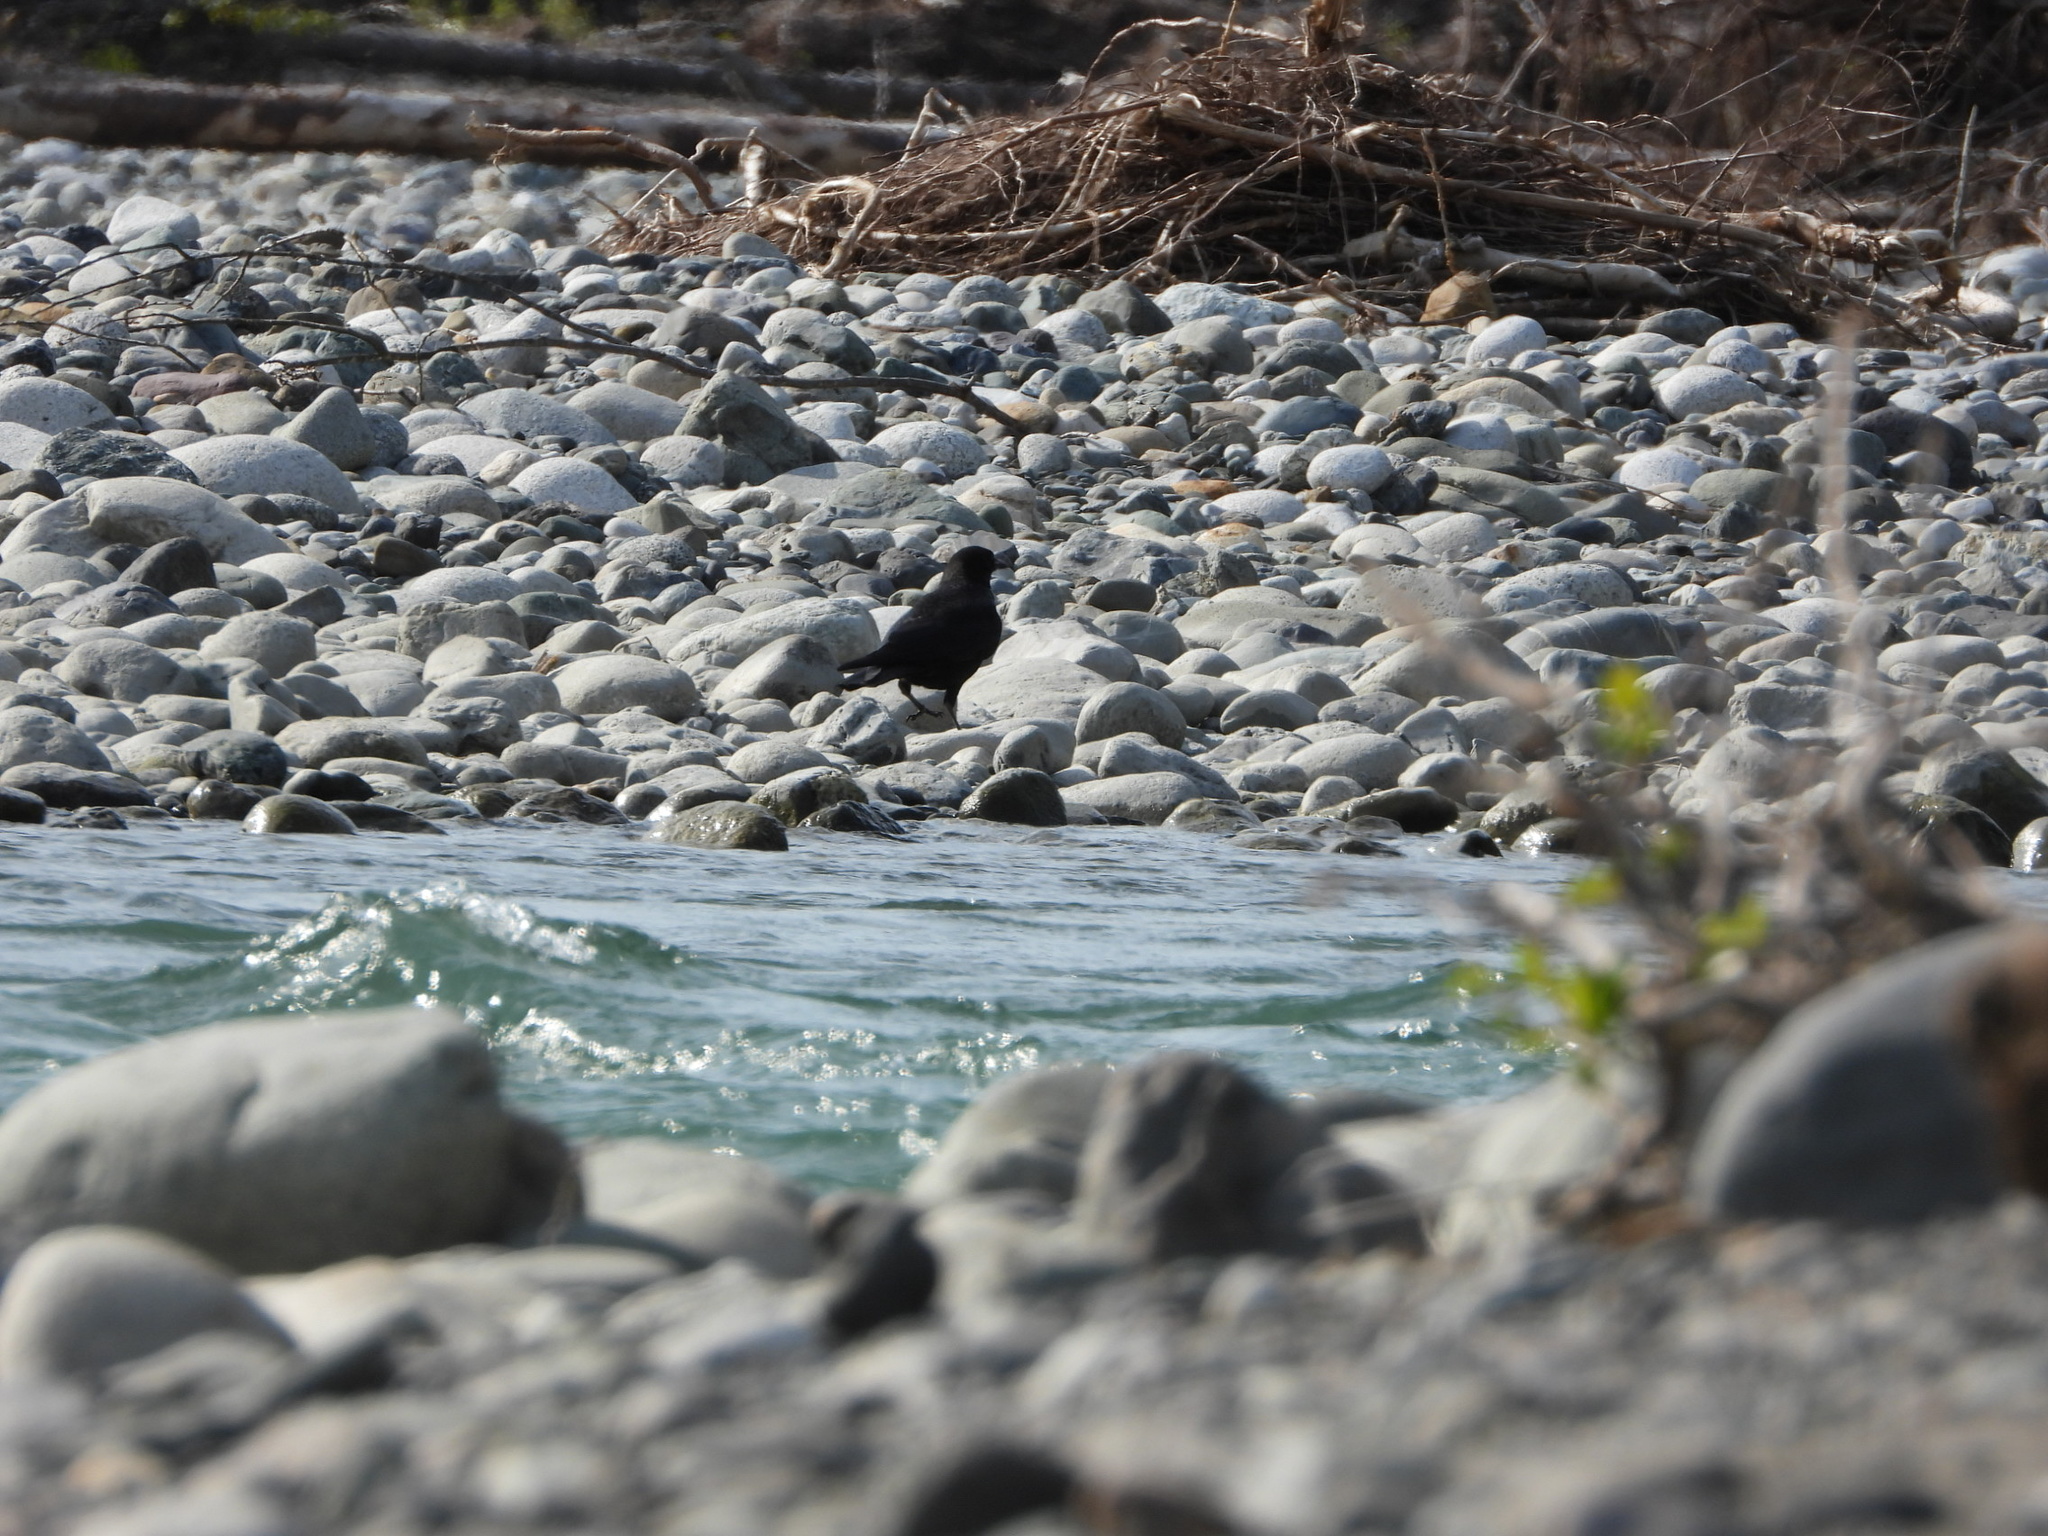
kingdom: Animalia
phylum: Chordata
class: Aves
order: Passeriformes
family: Corvidae
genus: Corvus
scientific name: Corvus brachyrhynchos
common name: American crow
